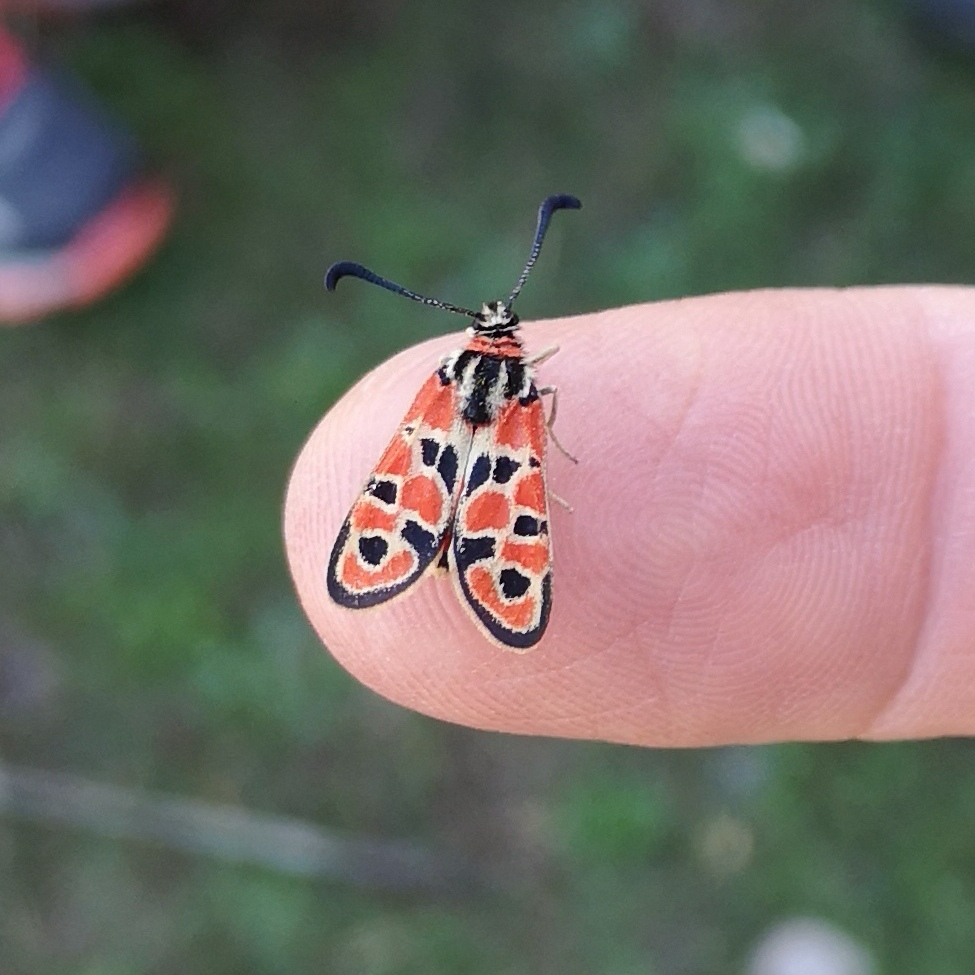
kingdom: Animalia
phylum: Arthropoda
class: Insecta
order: Lepidoptera
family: Zygaenidae
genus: Zygaena
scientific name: Zygaena fausta
